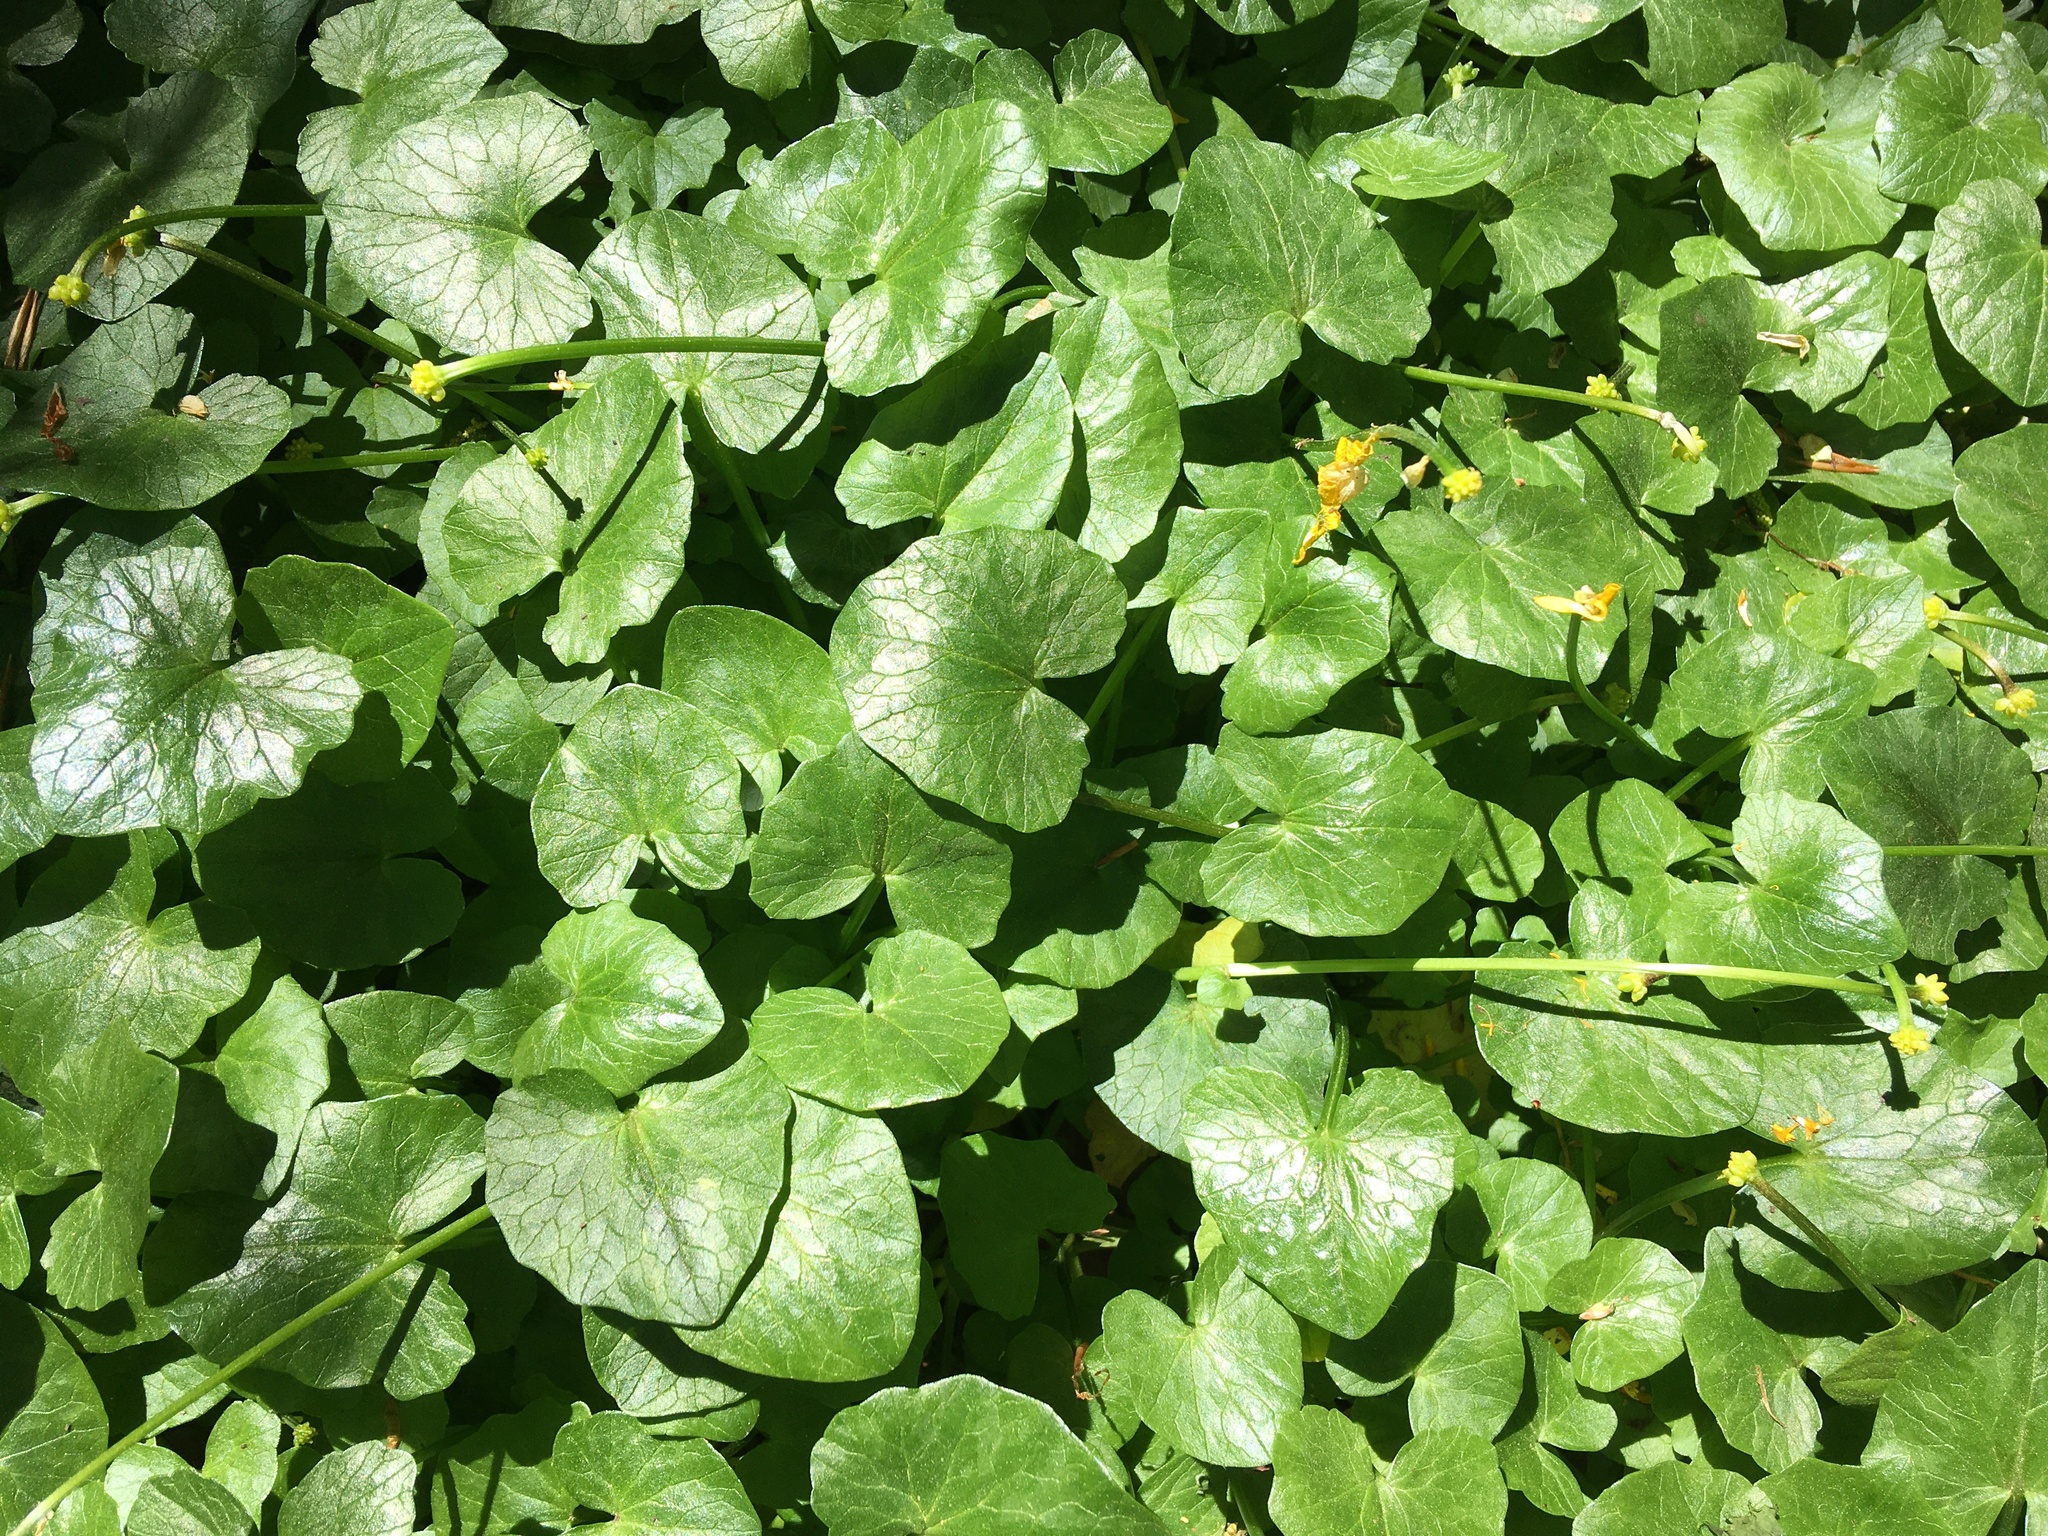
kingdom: Plantae
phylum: Tracheophyta
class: Magnoliopsida
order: Ranunculales
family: Ranunculaceae
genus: Ficaria
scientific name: Ficaria verna
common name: Lesser celandine
